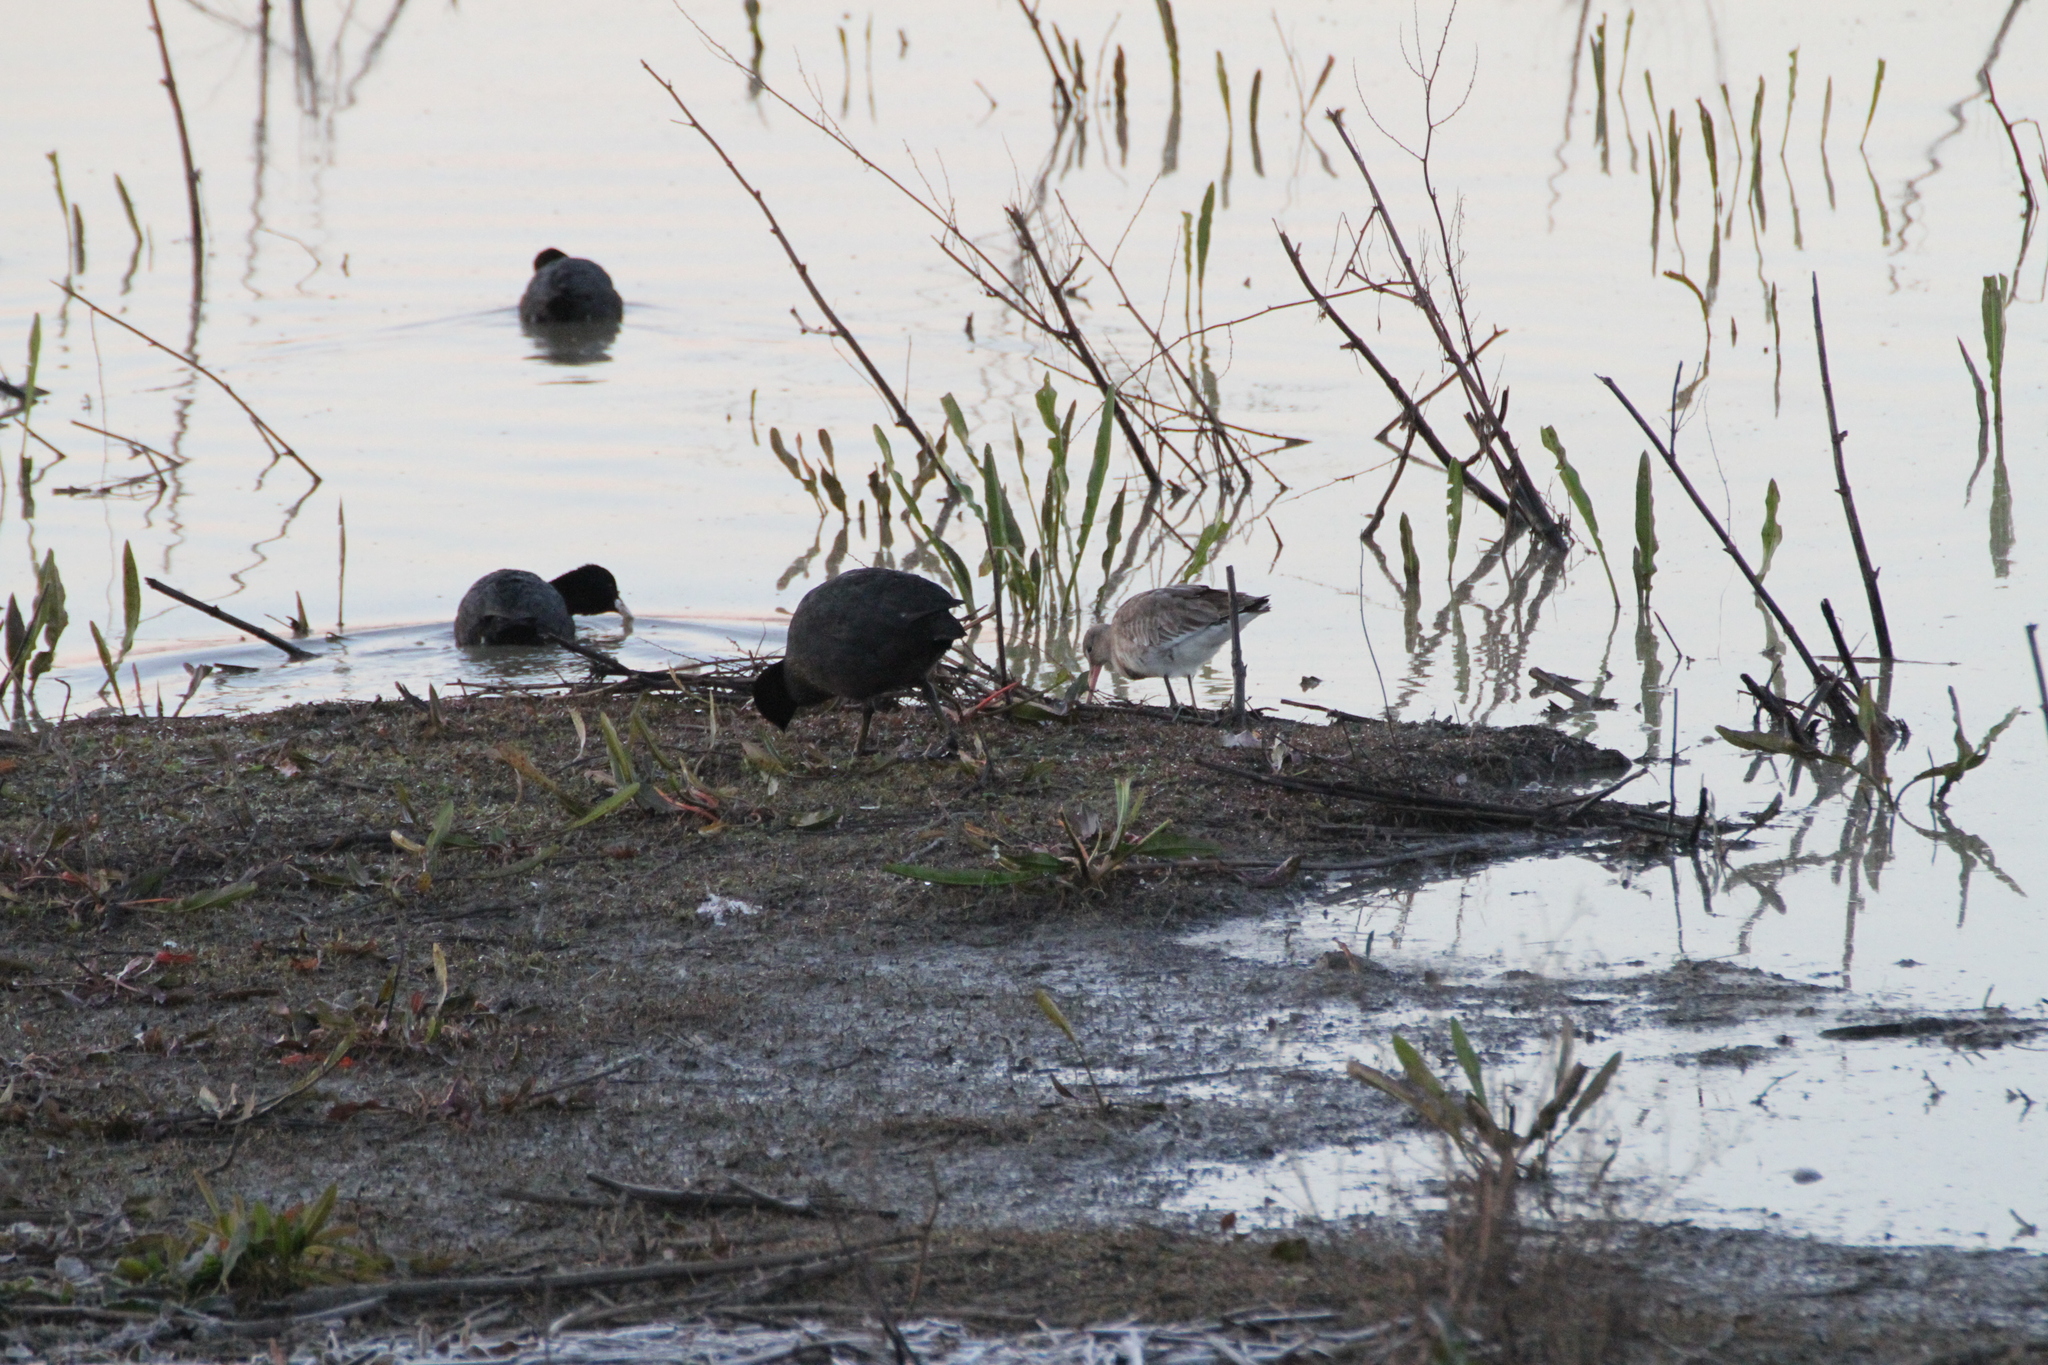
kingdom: Animalia
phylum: Chordata
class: Aves
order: Charadriiformes
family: Scolopacidae
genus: Limosa
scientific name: Limosa limosa
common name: Black-tailed godwit
